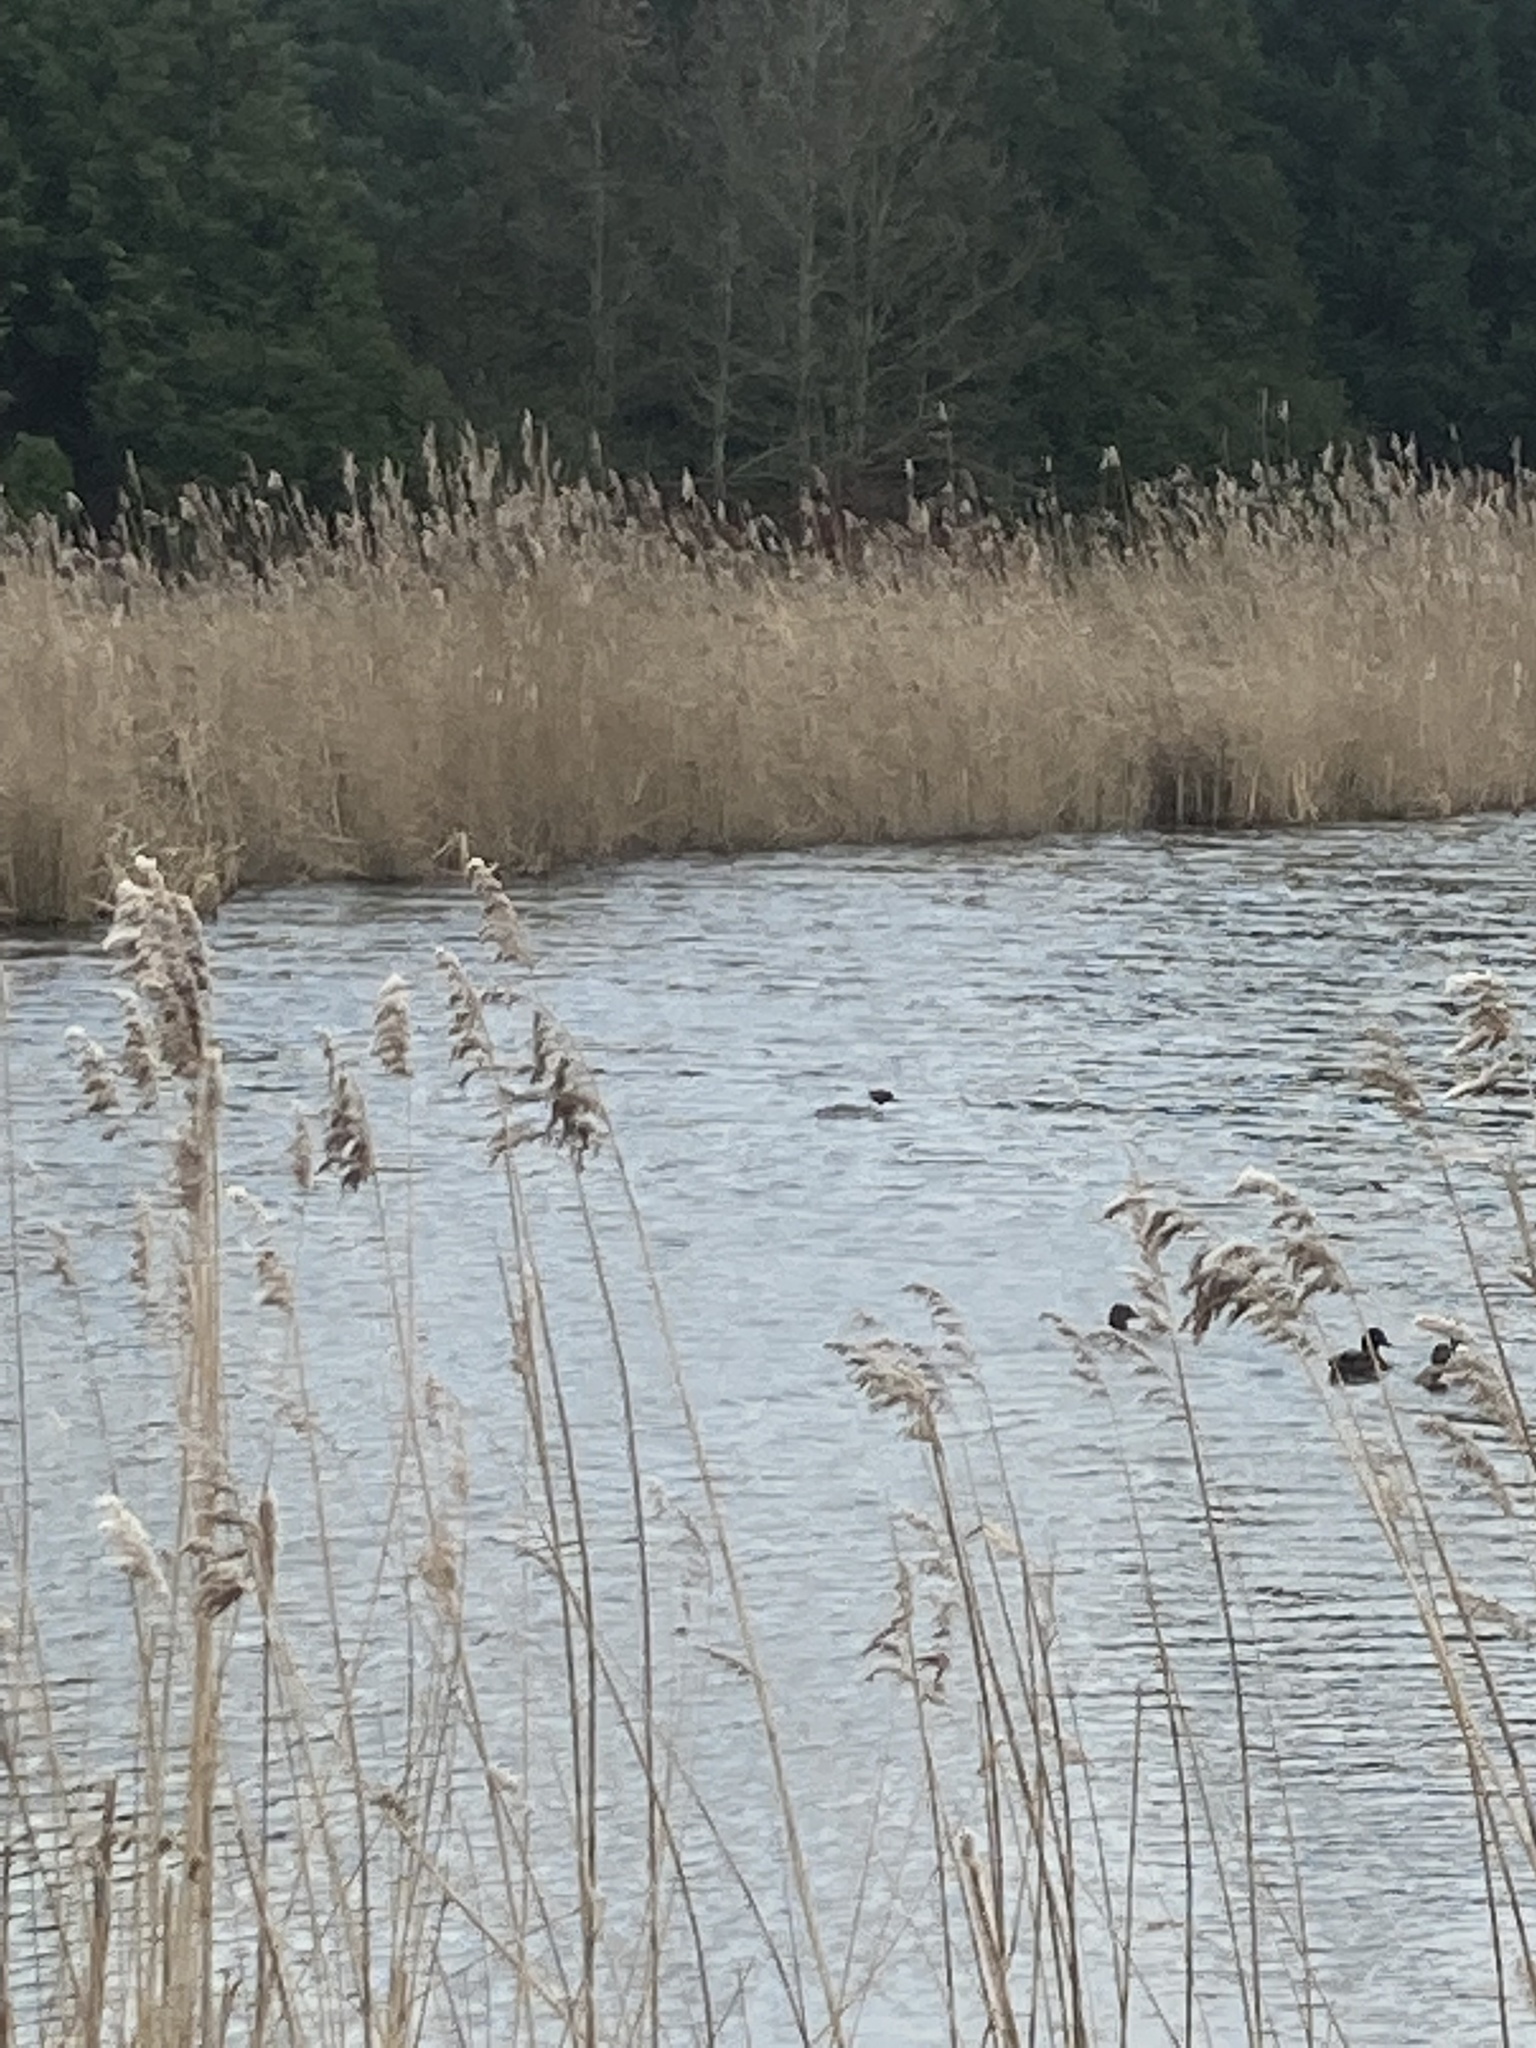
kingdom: Animalia
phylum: Chordata
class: Aves
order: Anseriformes
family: Anatidae
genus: Mergus
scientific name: Mergus merganser
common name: Common merganser
